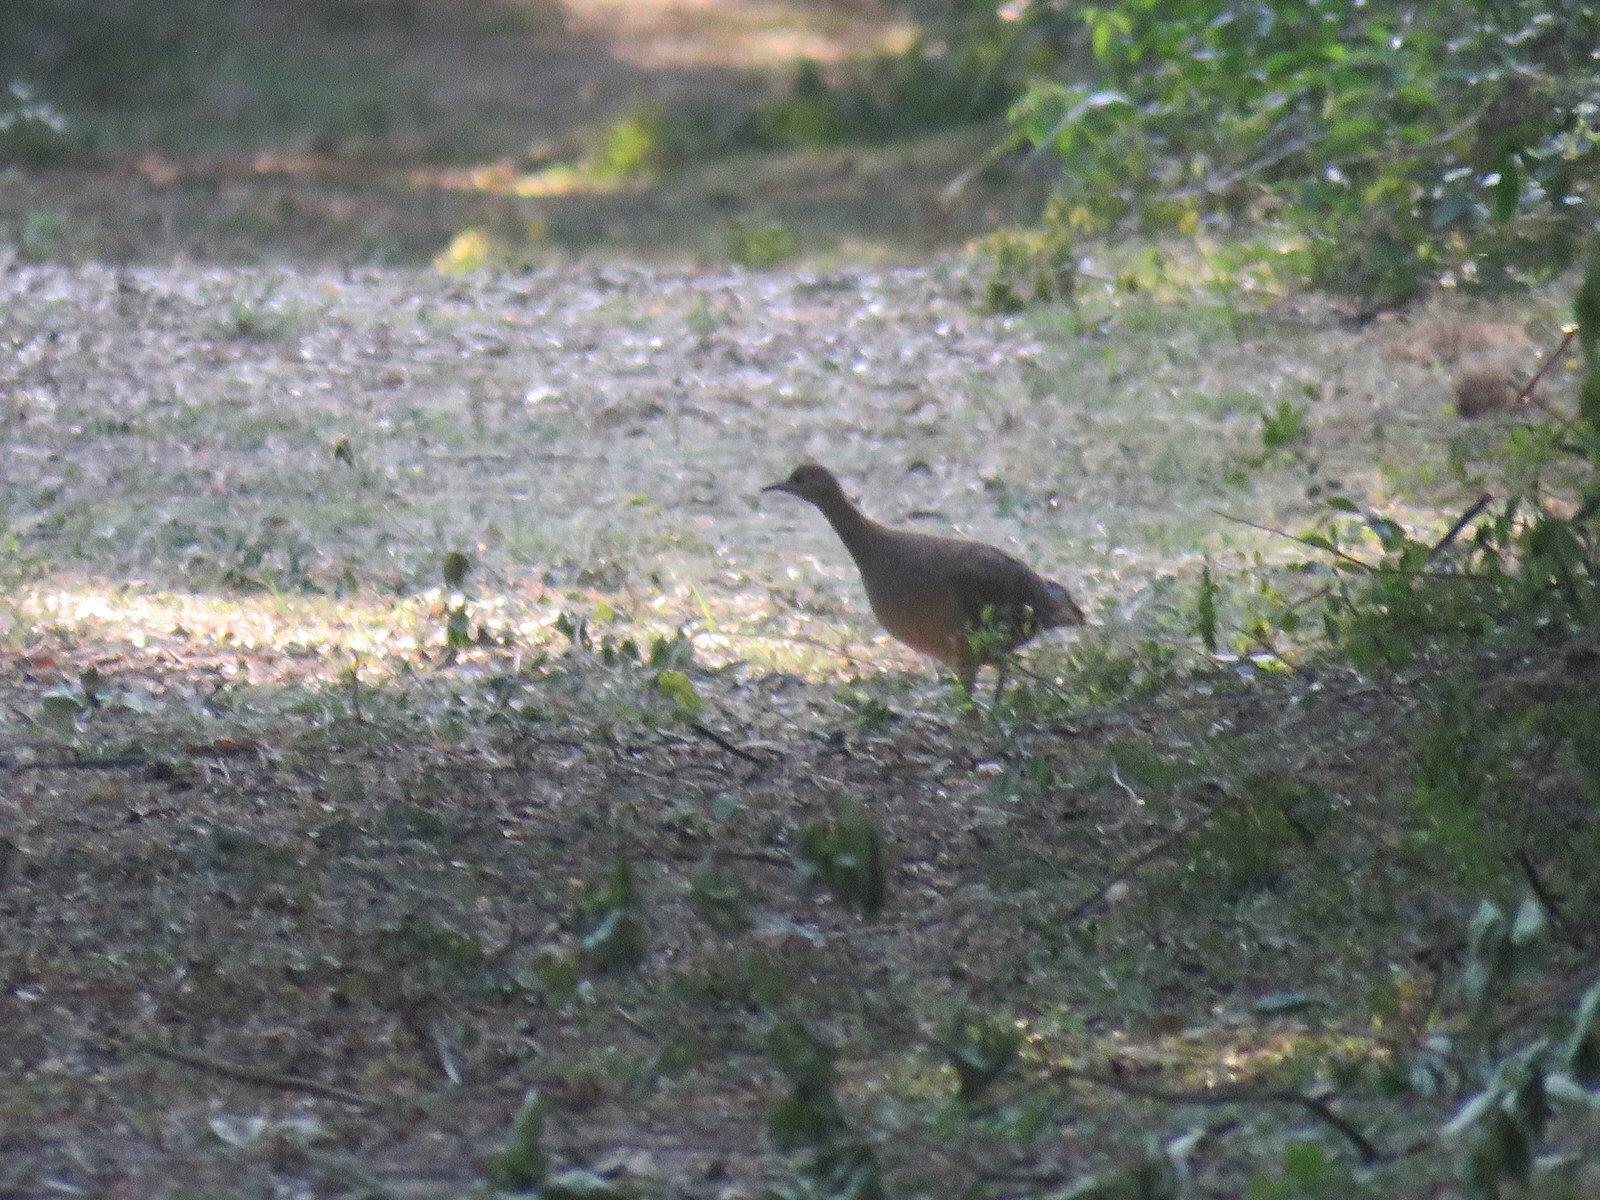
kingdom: Animalia
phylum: Chordata
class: Aves
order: Tinamiformes
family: Tinamidae
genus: Crypturellus
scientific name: Crypturellus undulatus
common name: Undulated tinamou
